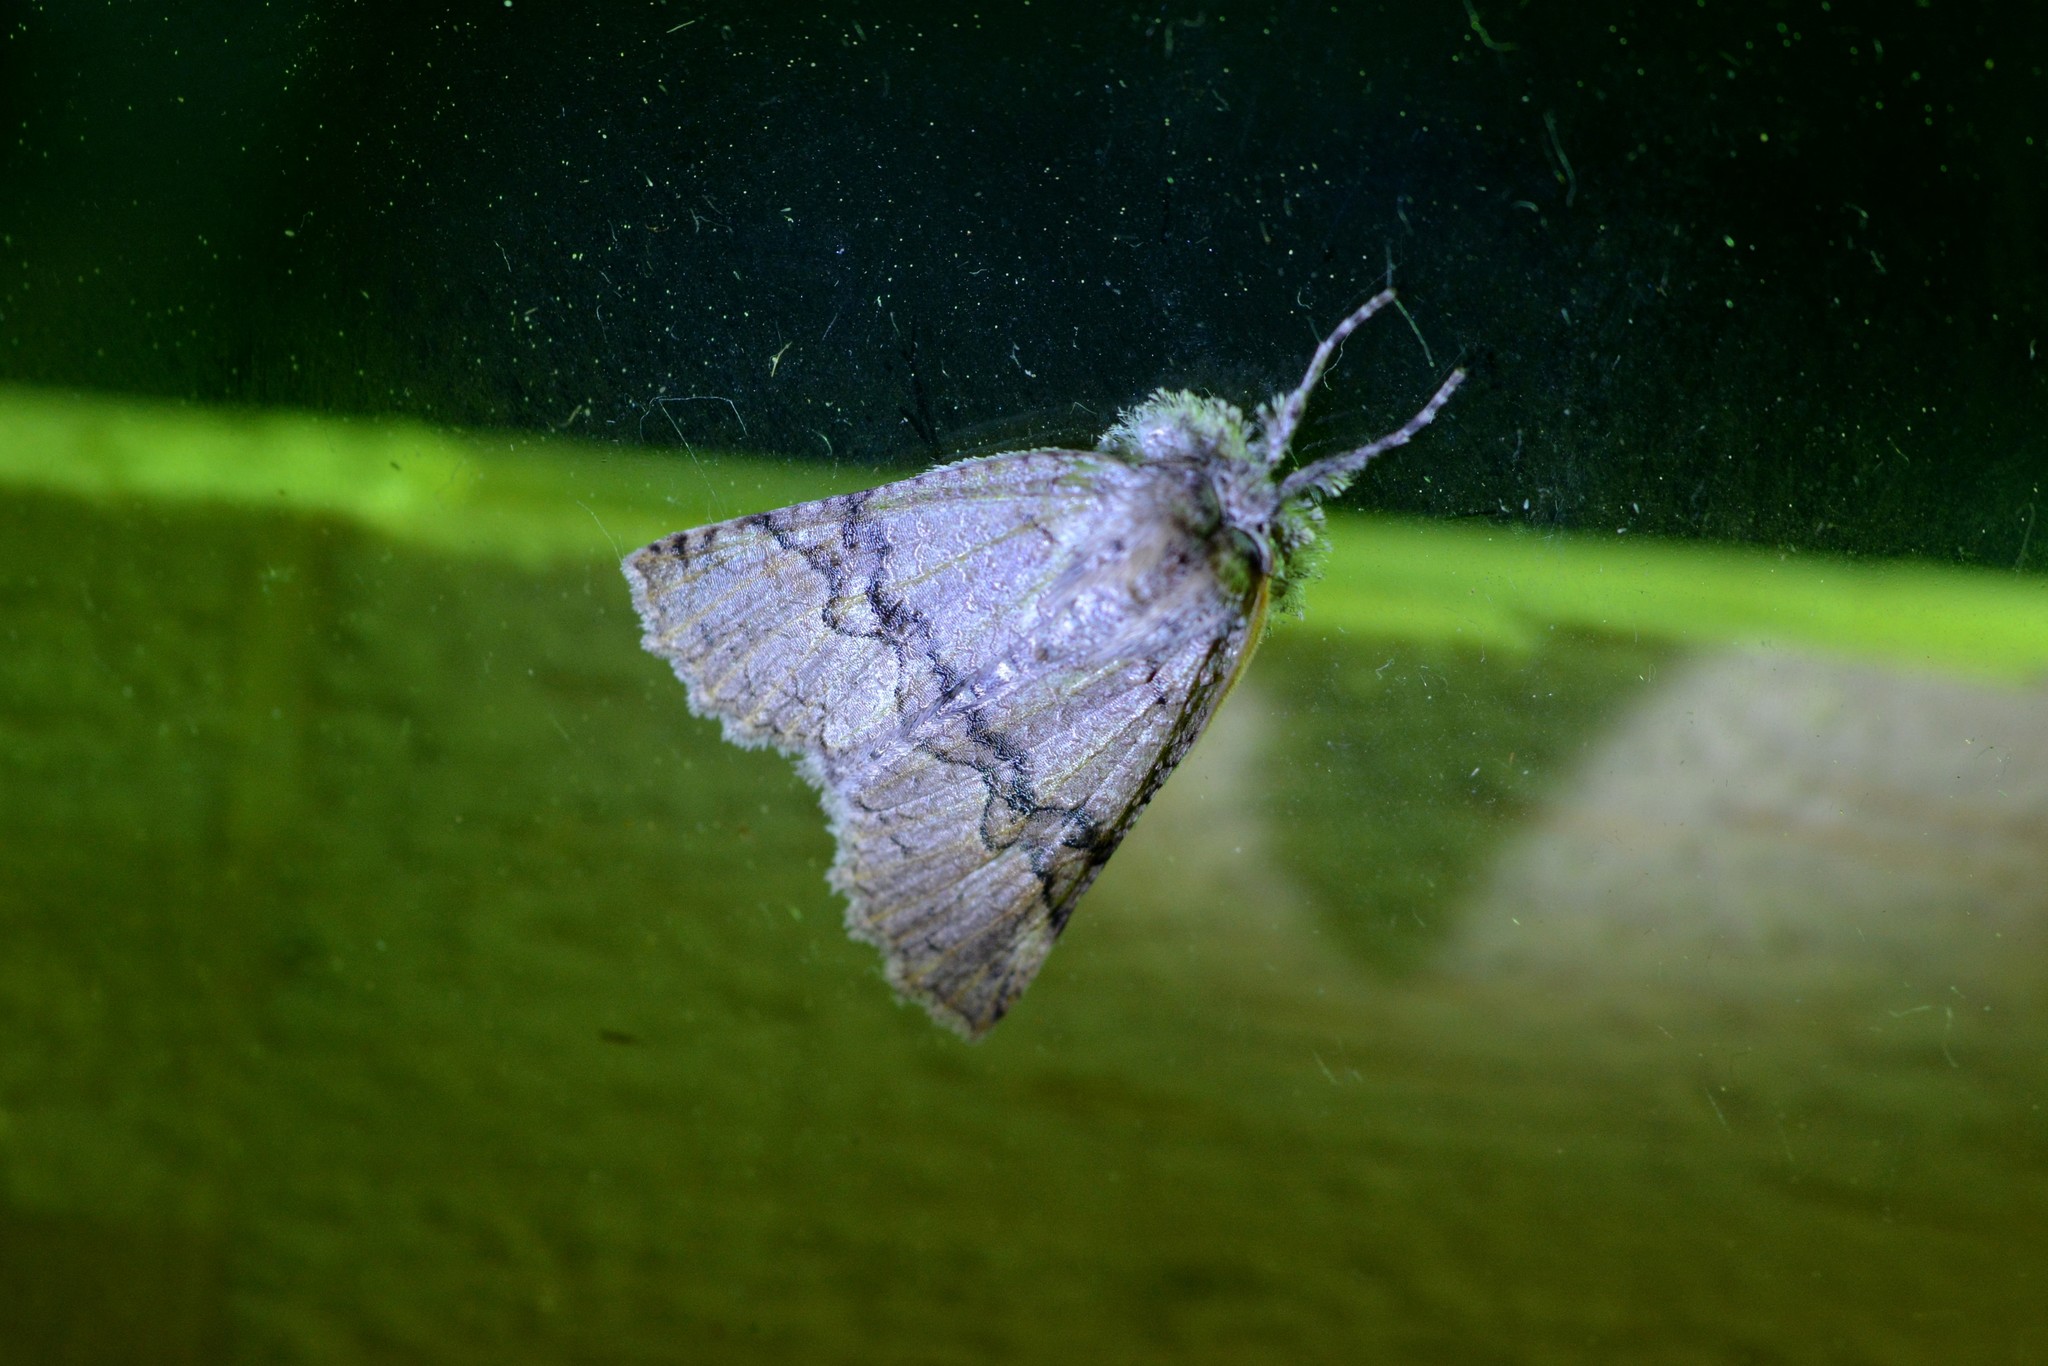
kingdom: Animalia
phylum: Arthropoda
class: Insecta
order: Lepidoptera
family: Geometridae
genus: Declana
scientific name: Declana floccosa
